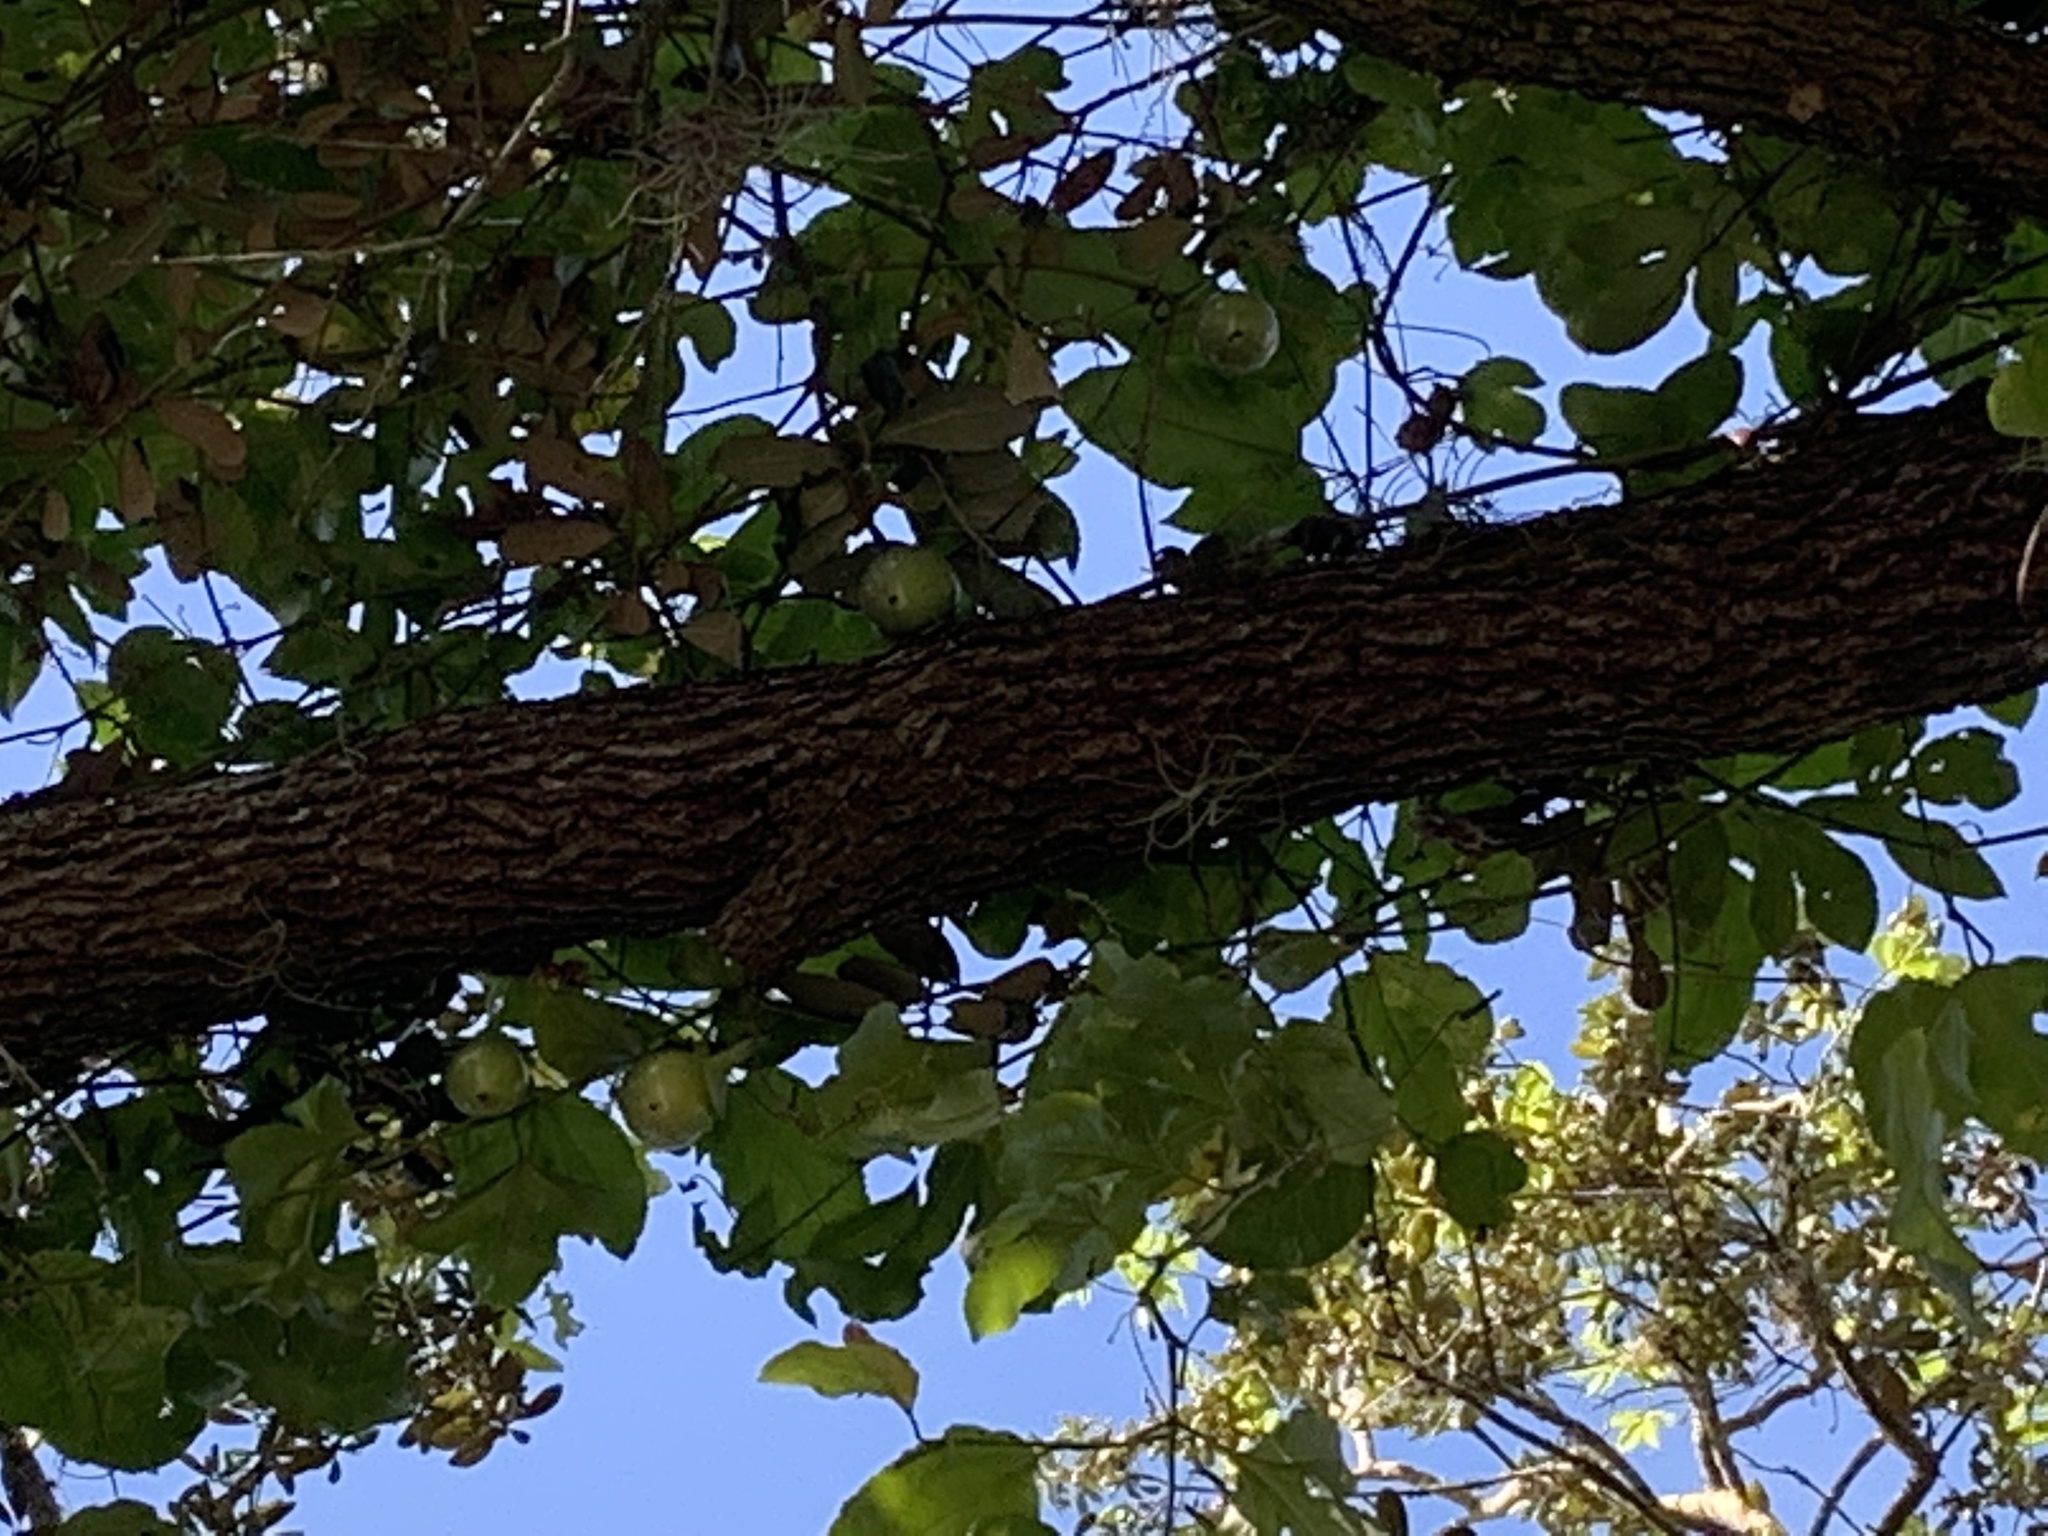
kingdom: Plantae
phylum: Tracheophyta
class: Magnoliopsida
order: Malpighiales
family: Passifloraceae
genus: Passiflora
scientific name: Passiflora edulis
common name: Purple granadilla
